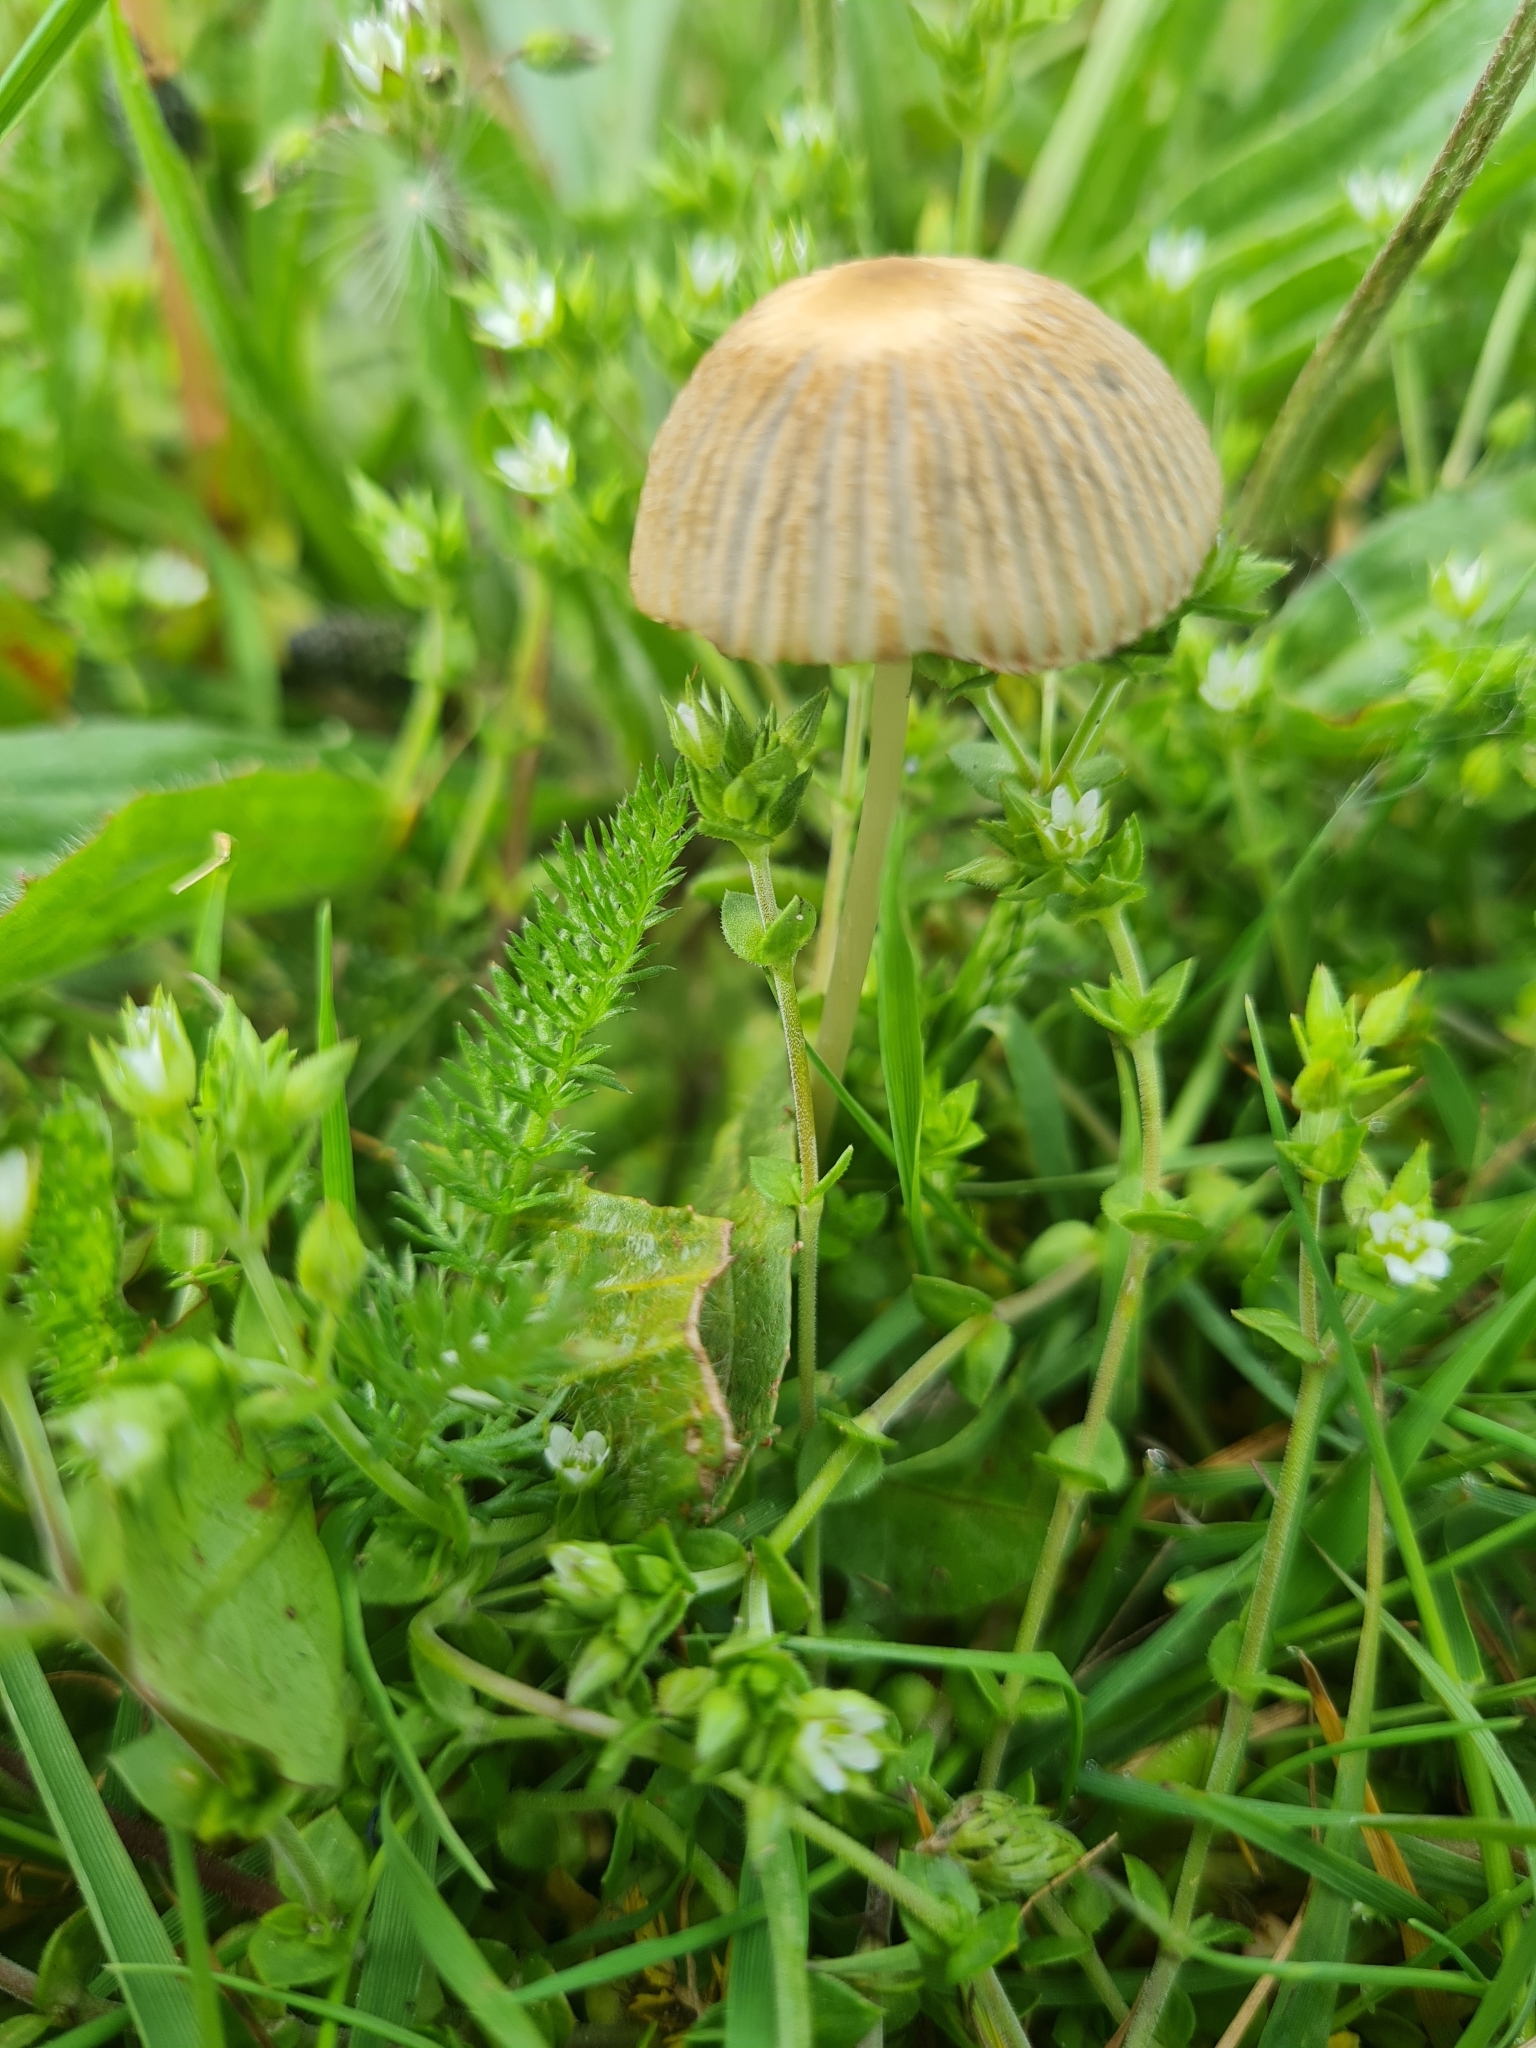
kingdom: Fungi
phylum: Basidiomycota
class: Agaricomycetes
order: Agaricales
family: Psathyrellaceae
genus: Parasola
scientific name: Parasola
